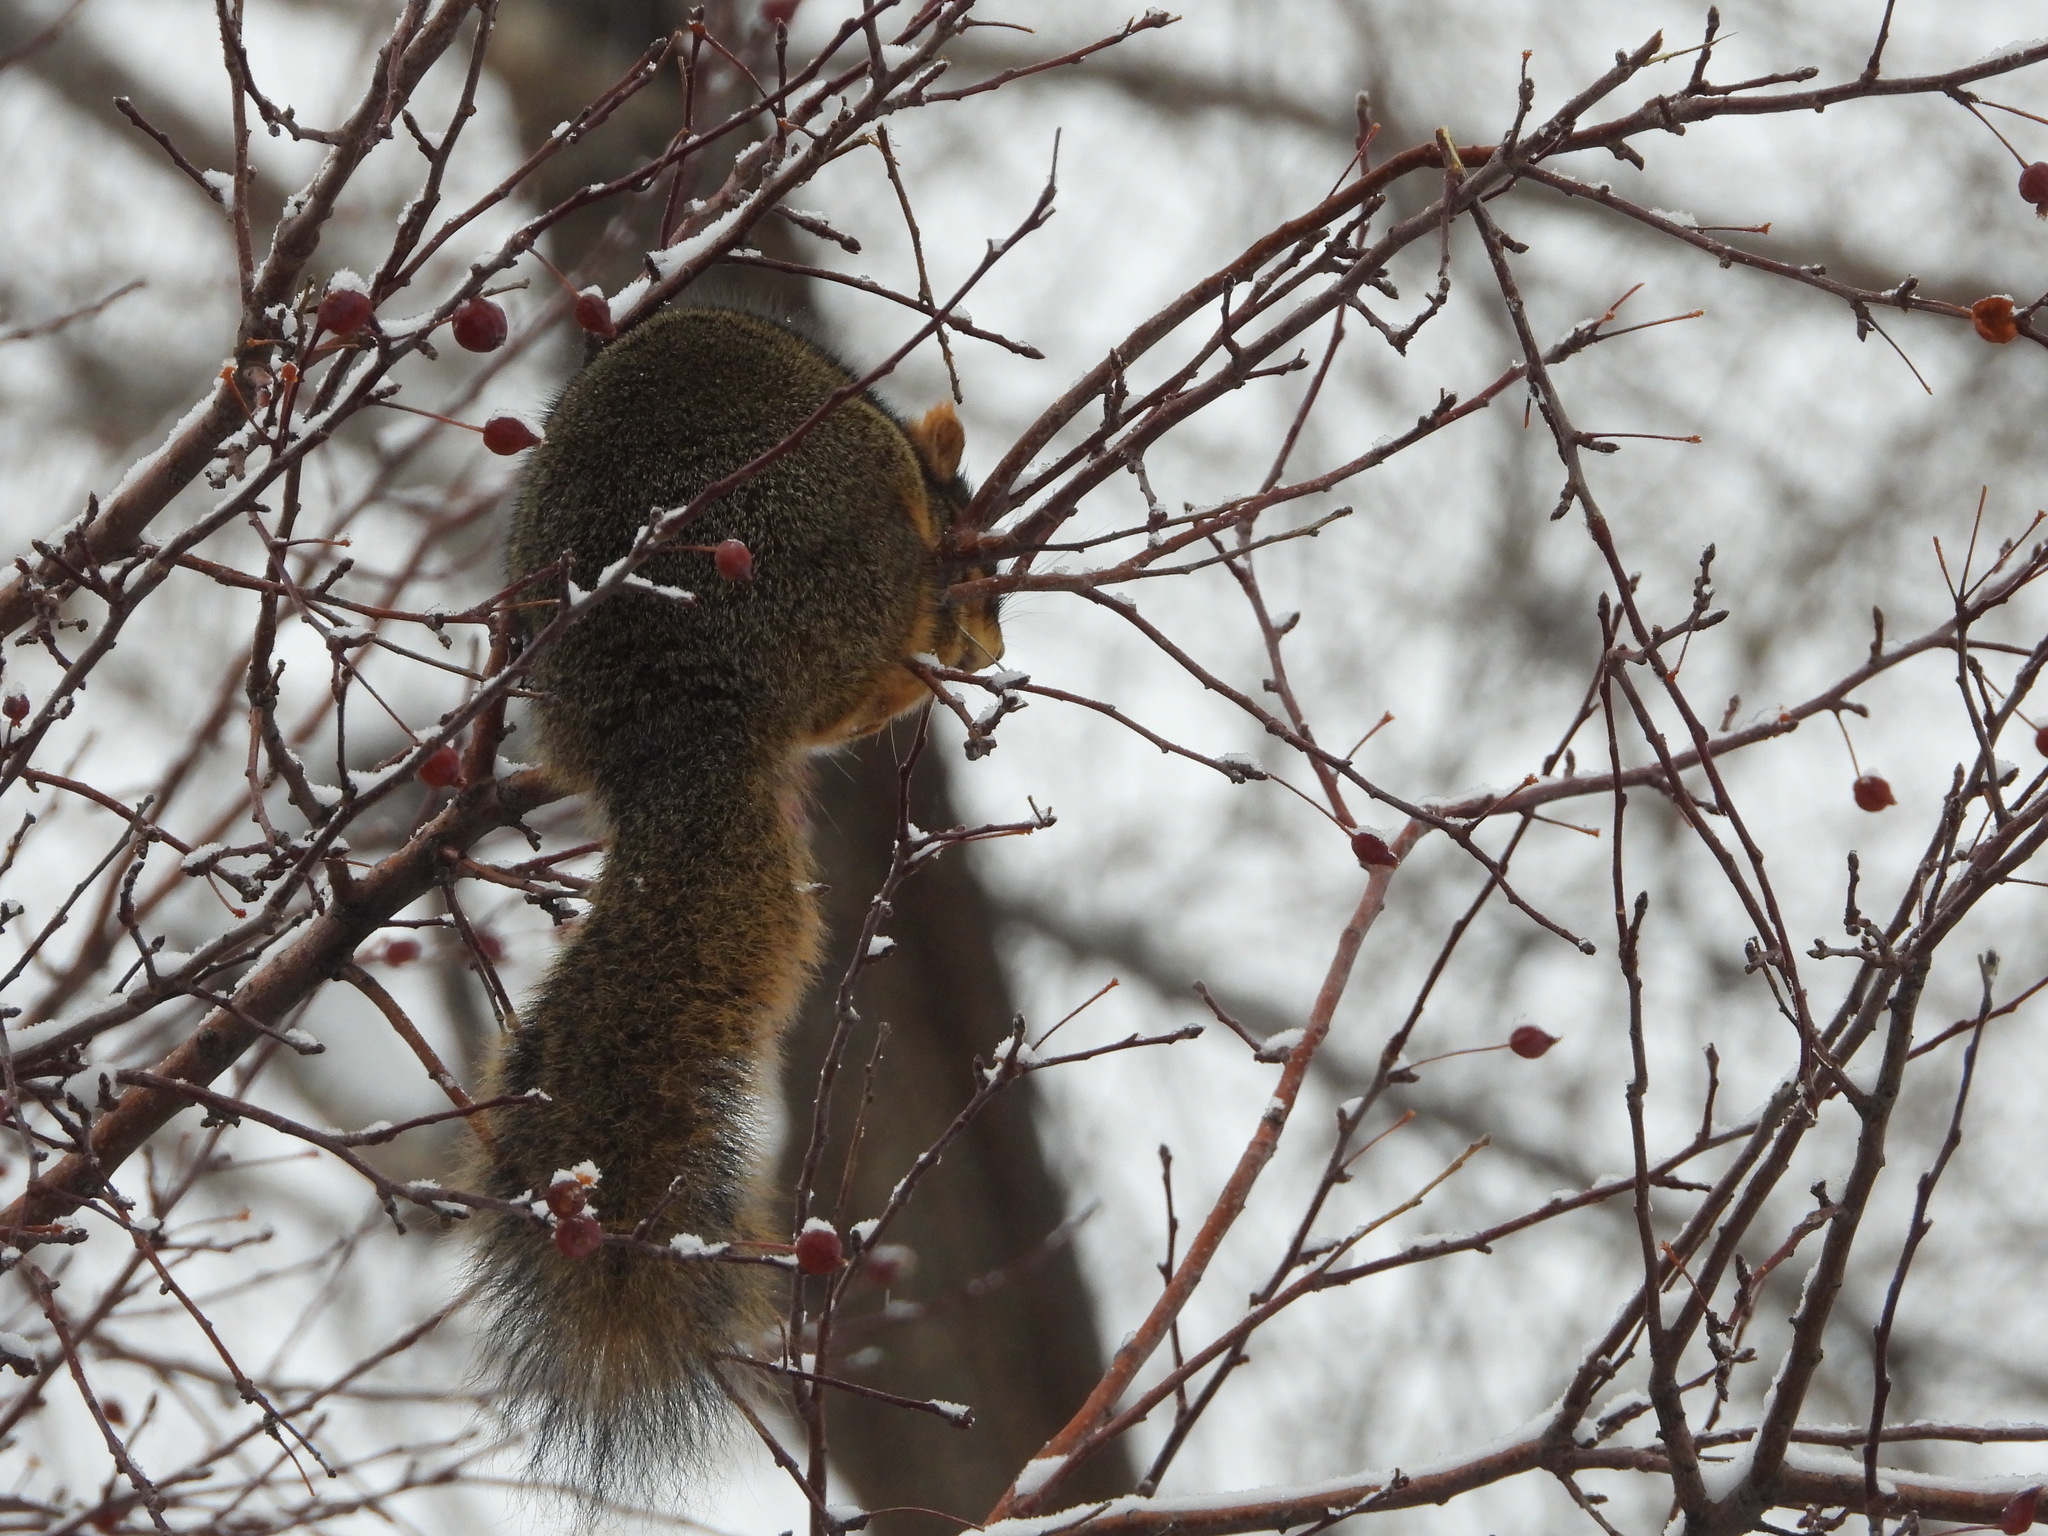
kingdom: Animalia
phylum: Chordata
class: Mammalia
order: Rodentia
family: Sciuridae
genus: Sciurus
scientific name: Sciurus niger
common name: Fox squirrel
